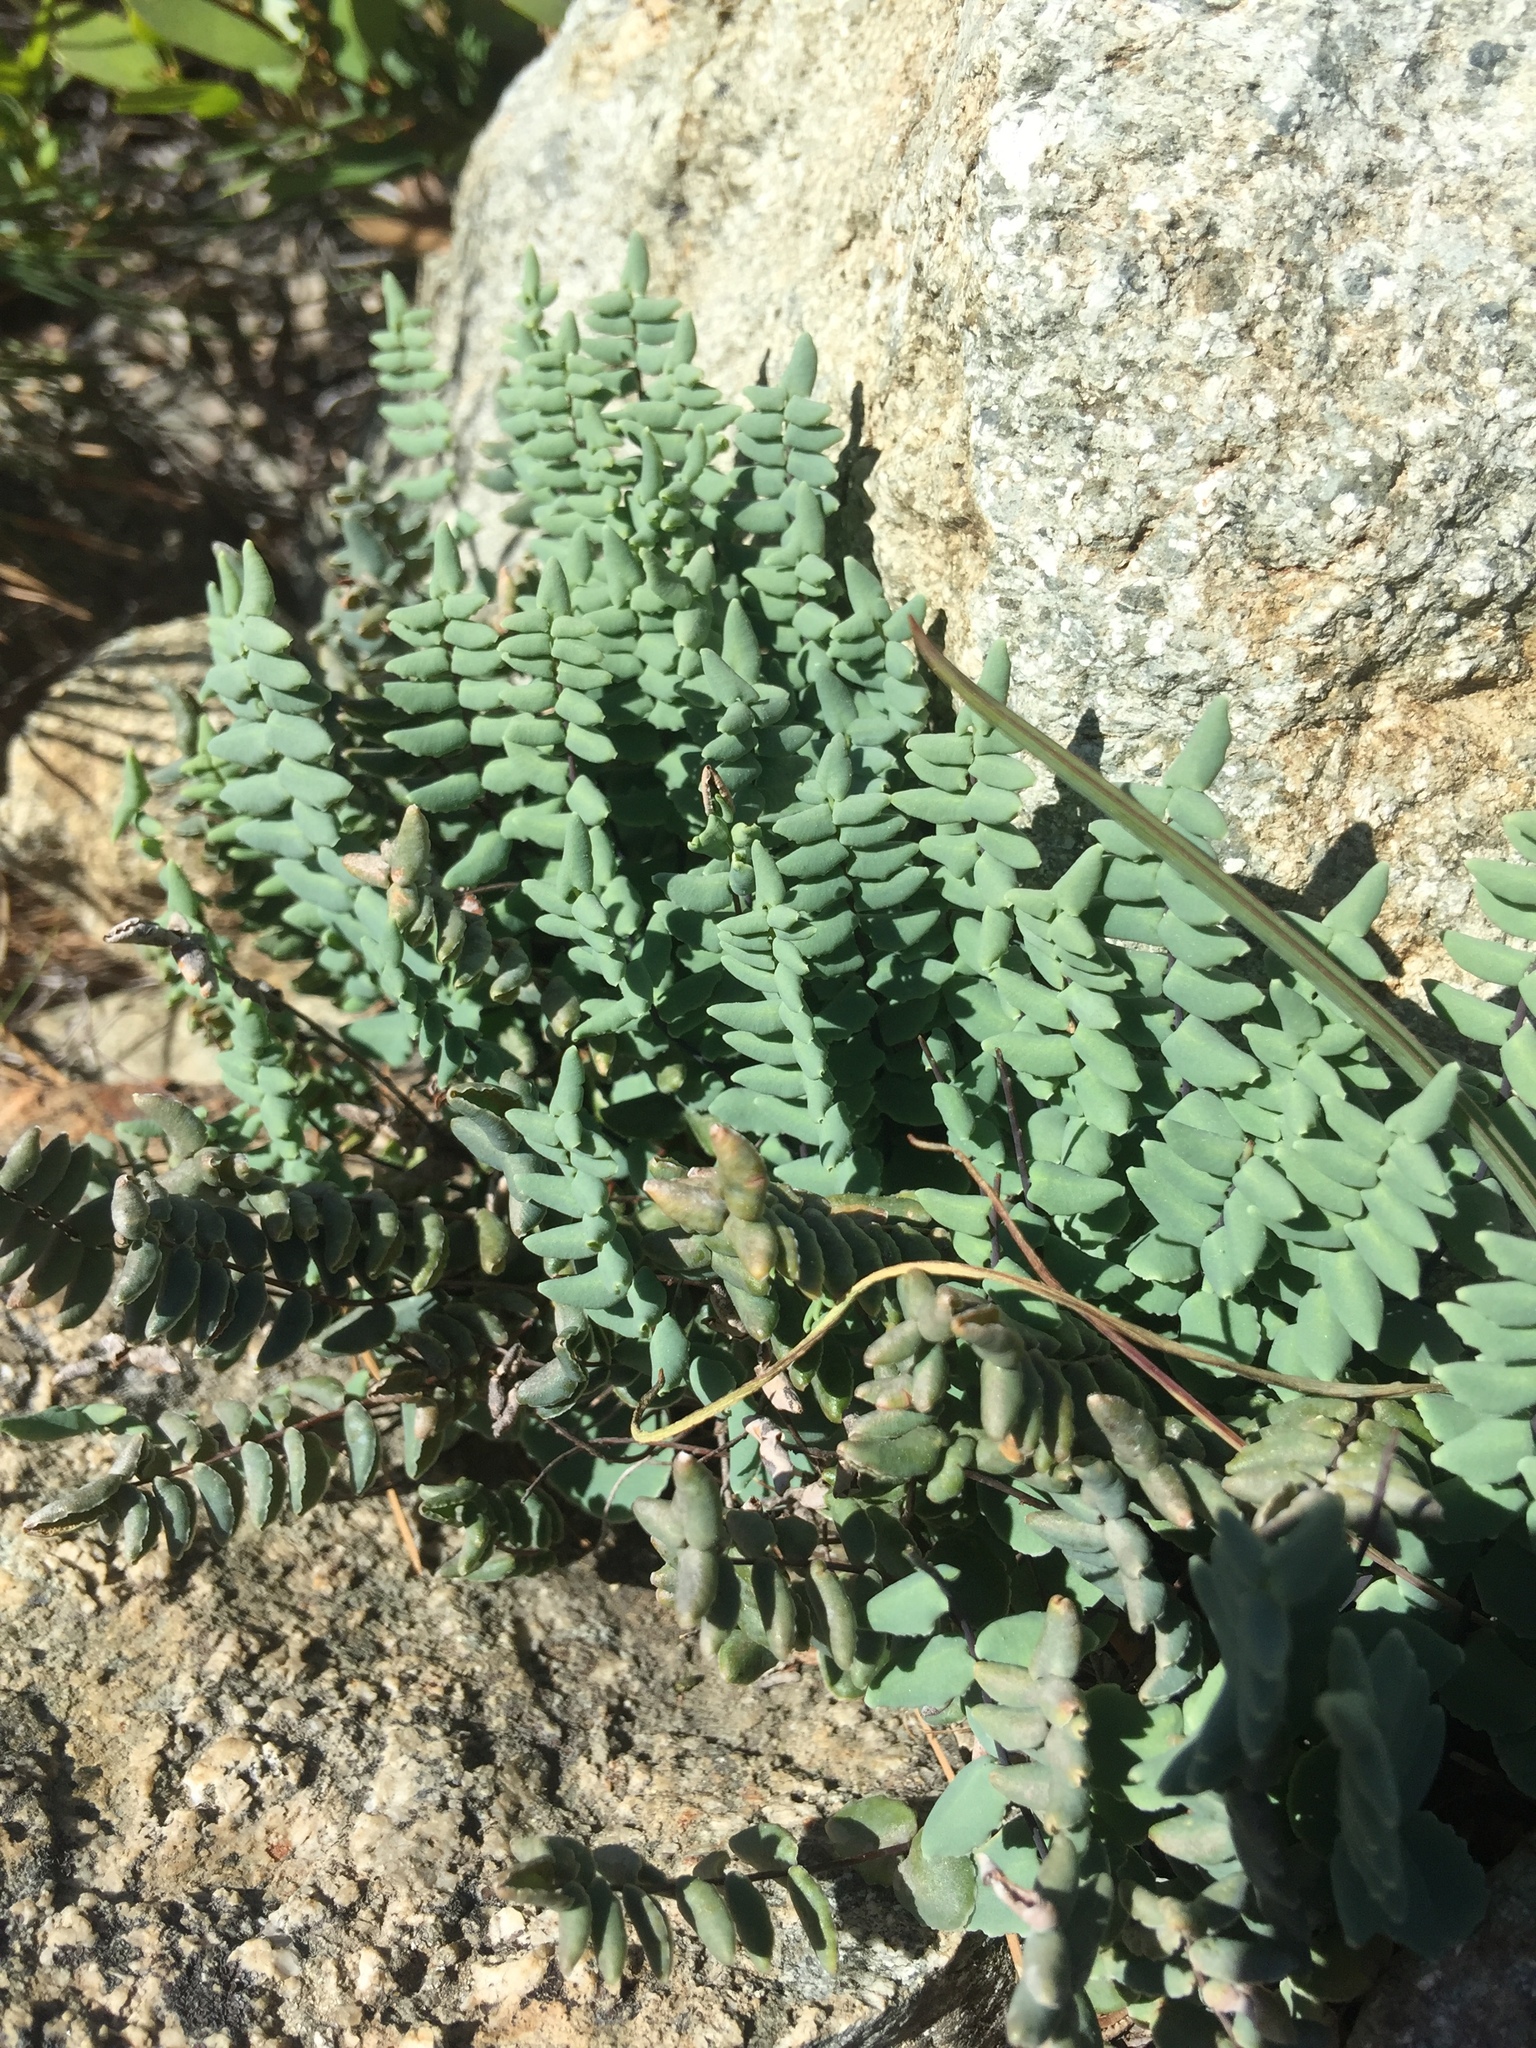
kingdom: Plantae
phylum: Tracheophyta
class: Polypodiopsida
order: Polypodiales
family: Pteridaceae
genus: Pellaea
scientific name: Pellaea bridgesii
